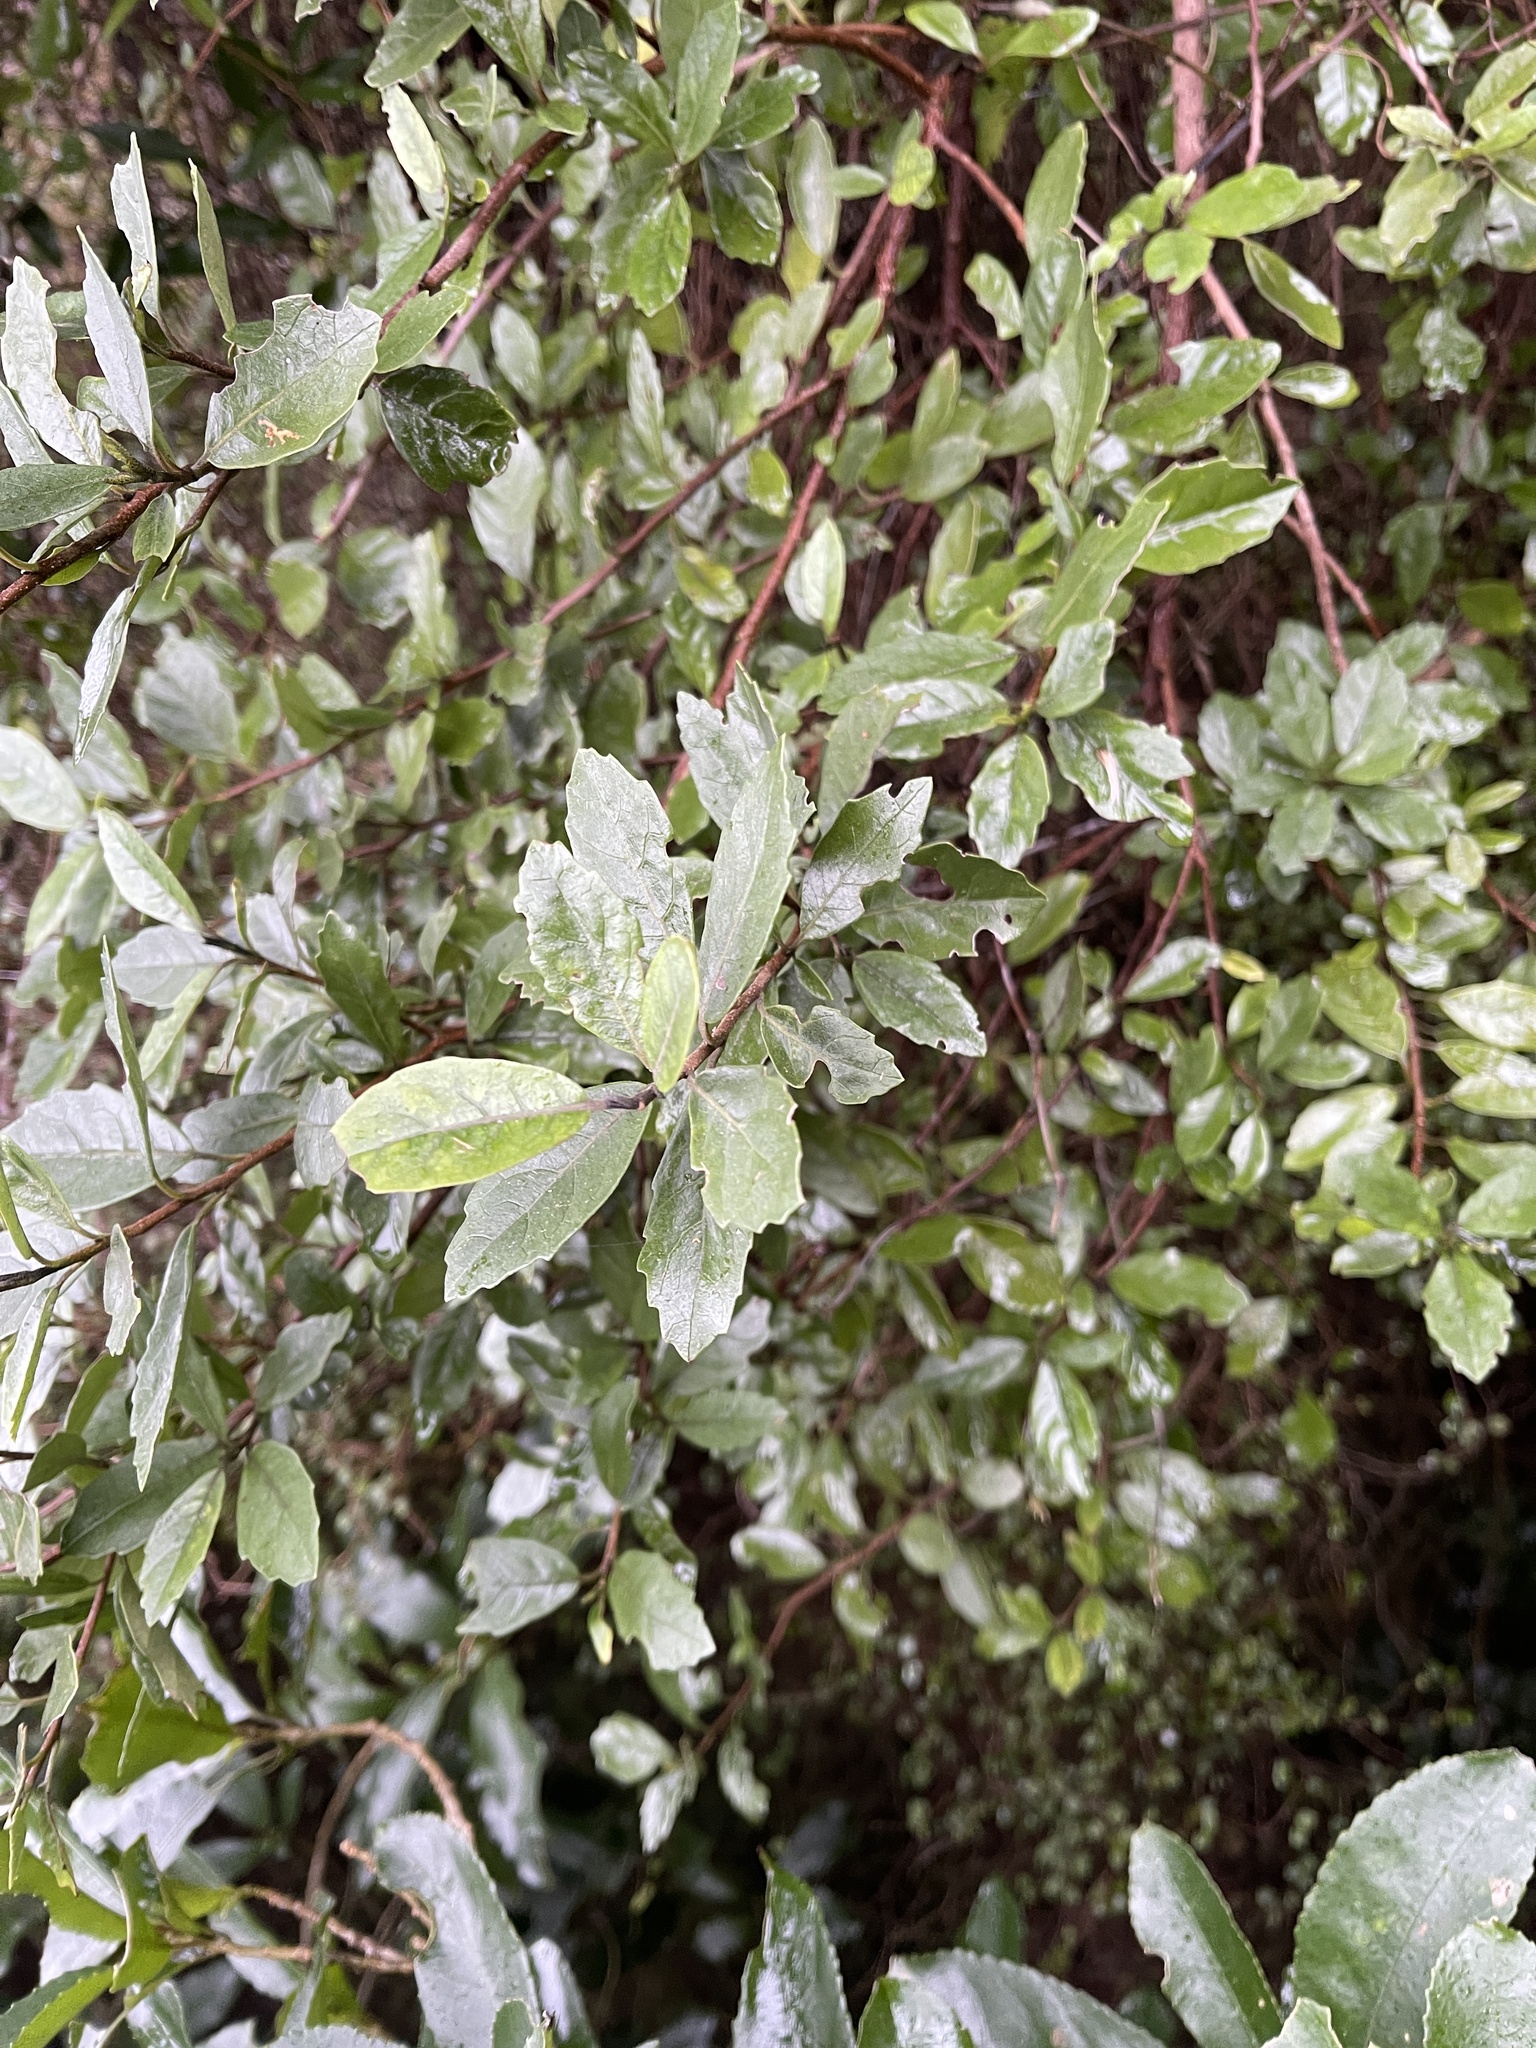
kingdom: Plantae
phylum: Tracheophyta
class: Magnoliopsida
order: Apiales
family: Pennantiaceae
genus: Pennantia
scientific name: Pennantia corymbosa
